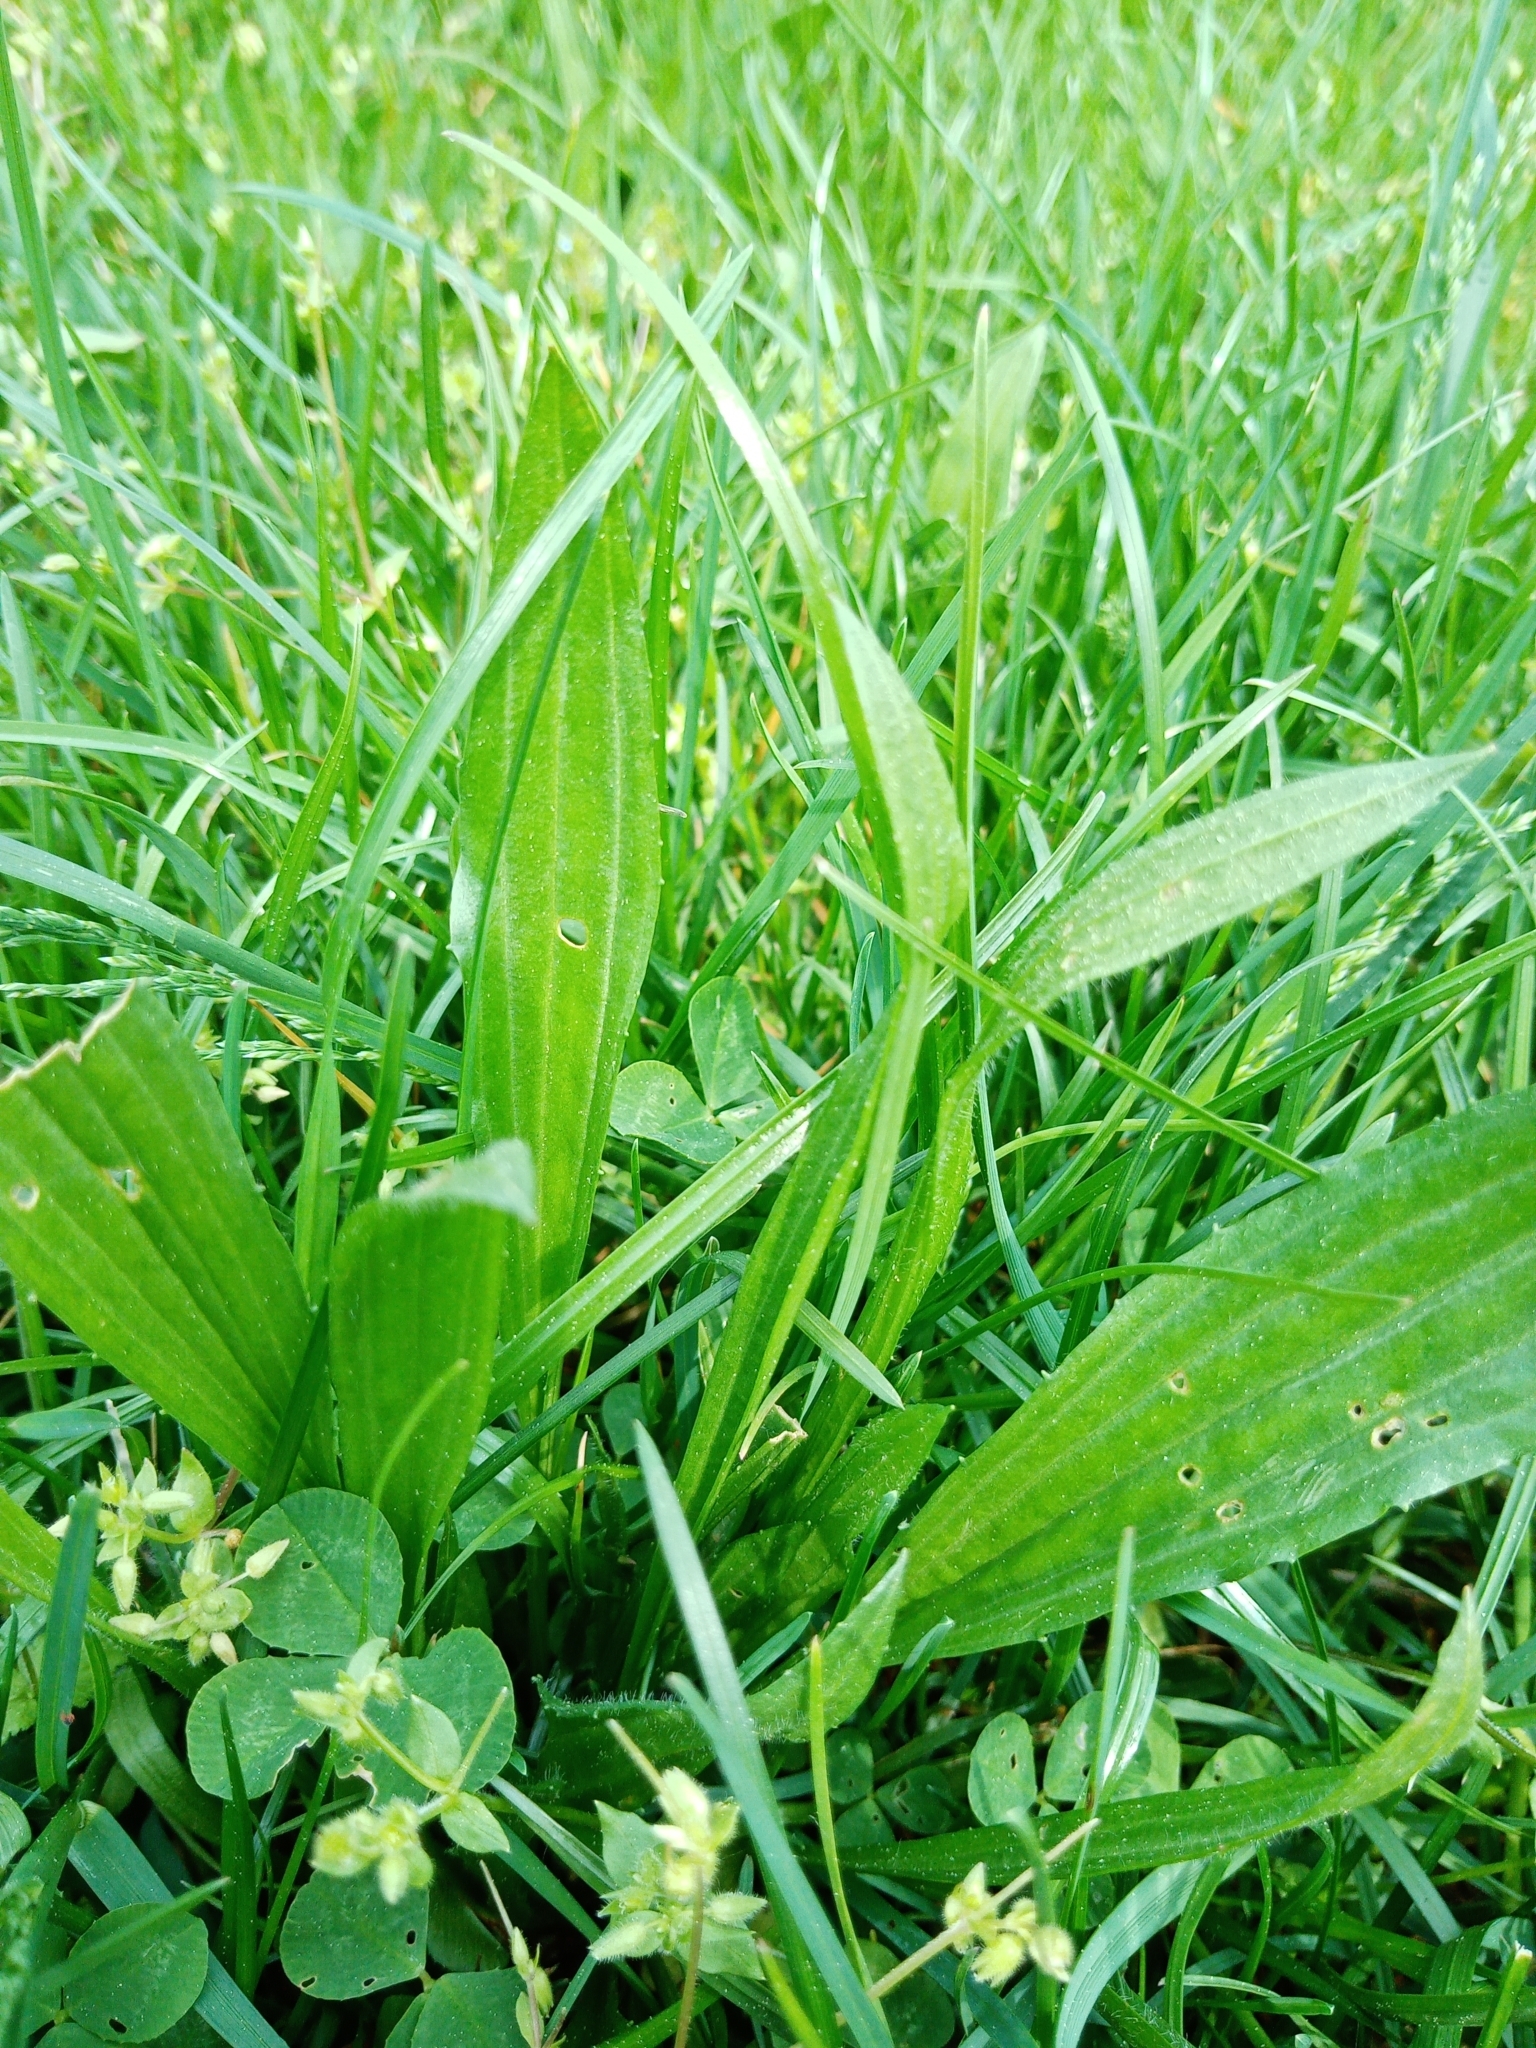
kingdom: Plantae
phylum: Tracheophyta
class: Magnoliopsida
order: Lamiales
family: Plantaginaceae
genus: Plantago
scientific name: Plantago lanceolata
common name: Ribwort plantain
